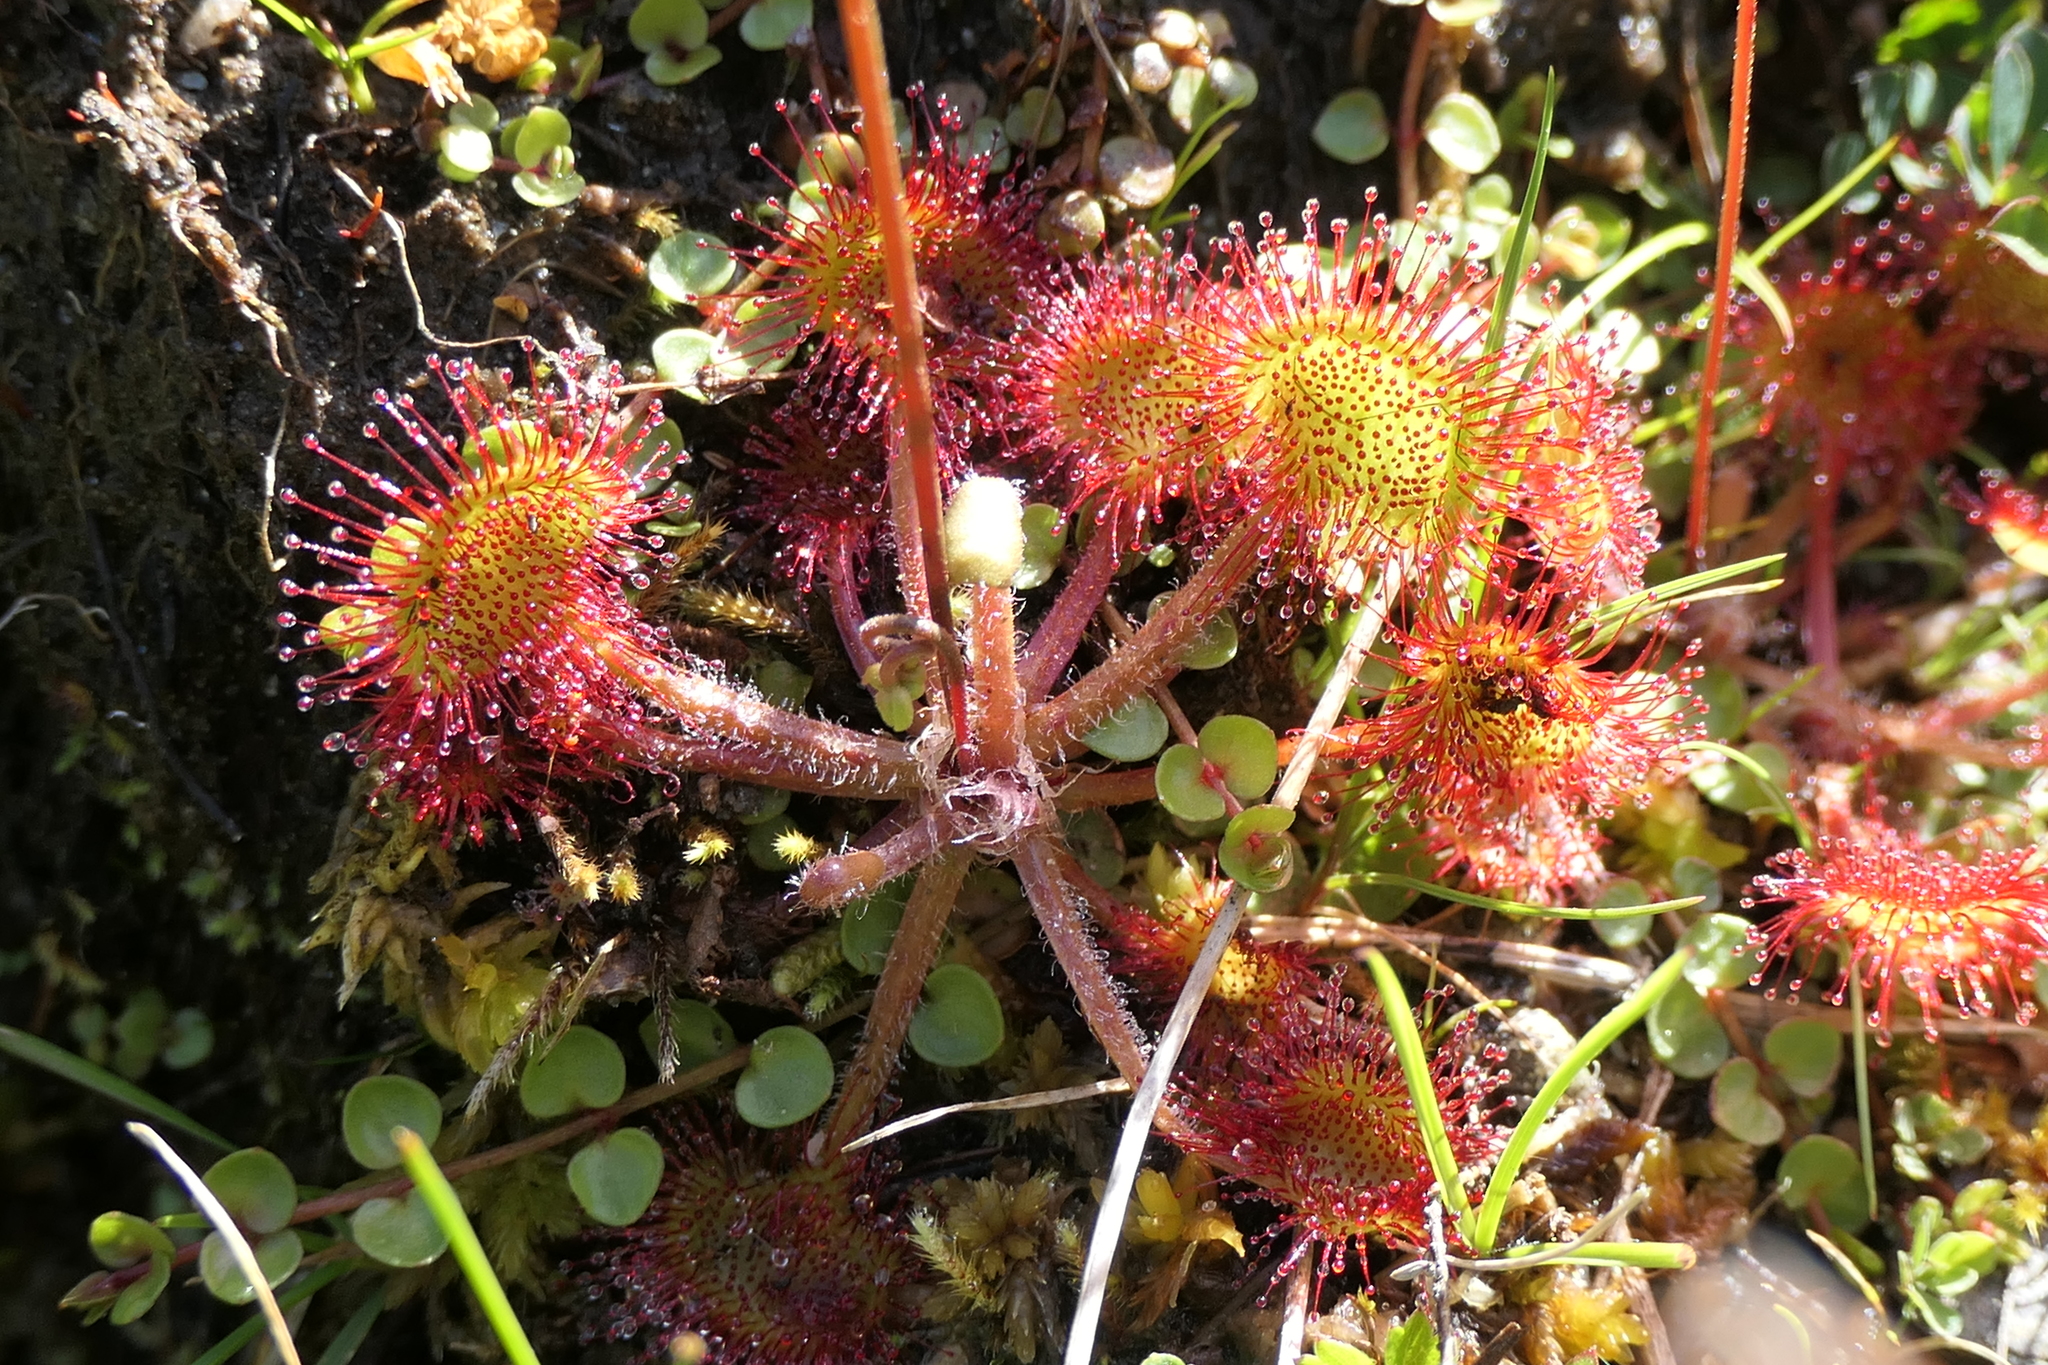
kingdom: Plantae
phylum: Tracheophyta
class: Magnoliopsida
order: Caryophyllales
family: Droseraceae
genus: Drosera
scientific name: Drosera rotundifolia
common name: Round-leaved sundew
